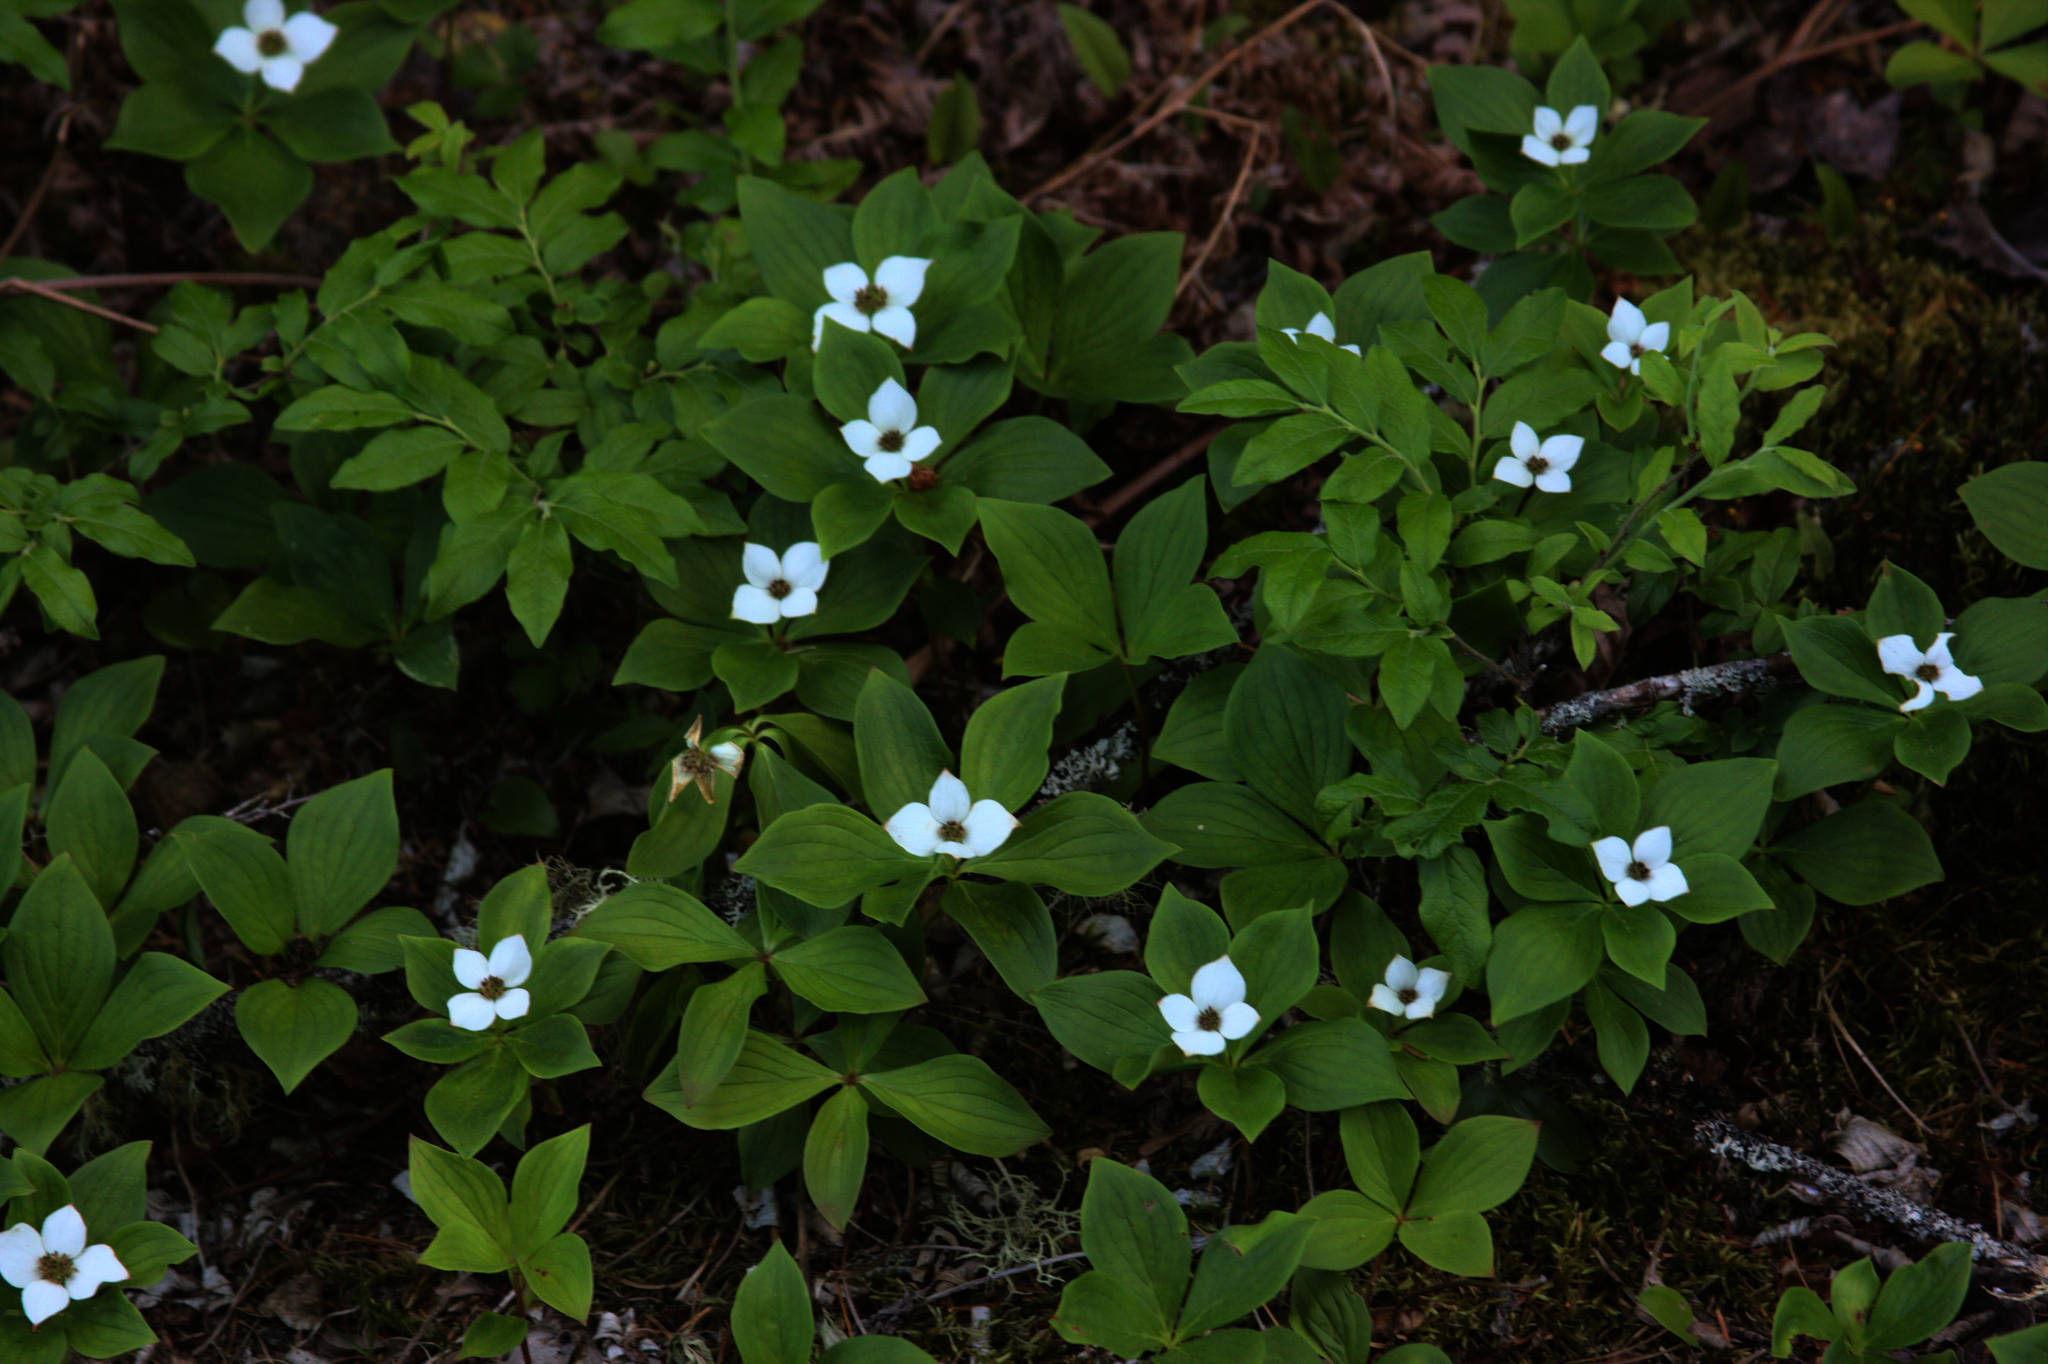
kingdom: Plantae
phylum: Tracheophyta
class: Magnoliopsida
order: Cornales
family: Cornaceae
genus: Cornus
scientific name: Cornus canadensis
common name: Creeping dogwood
